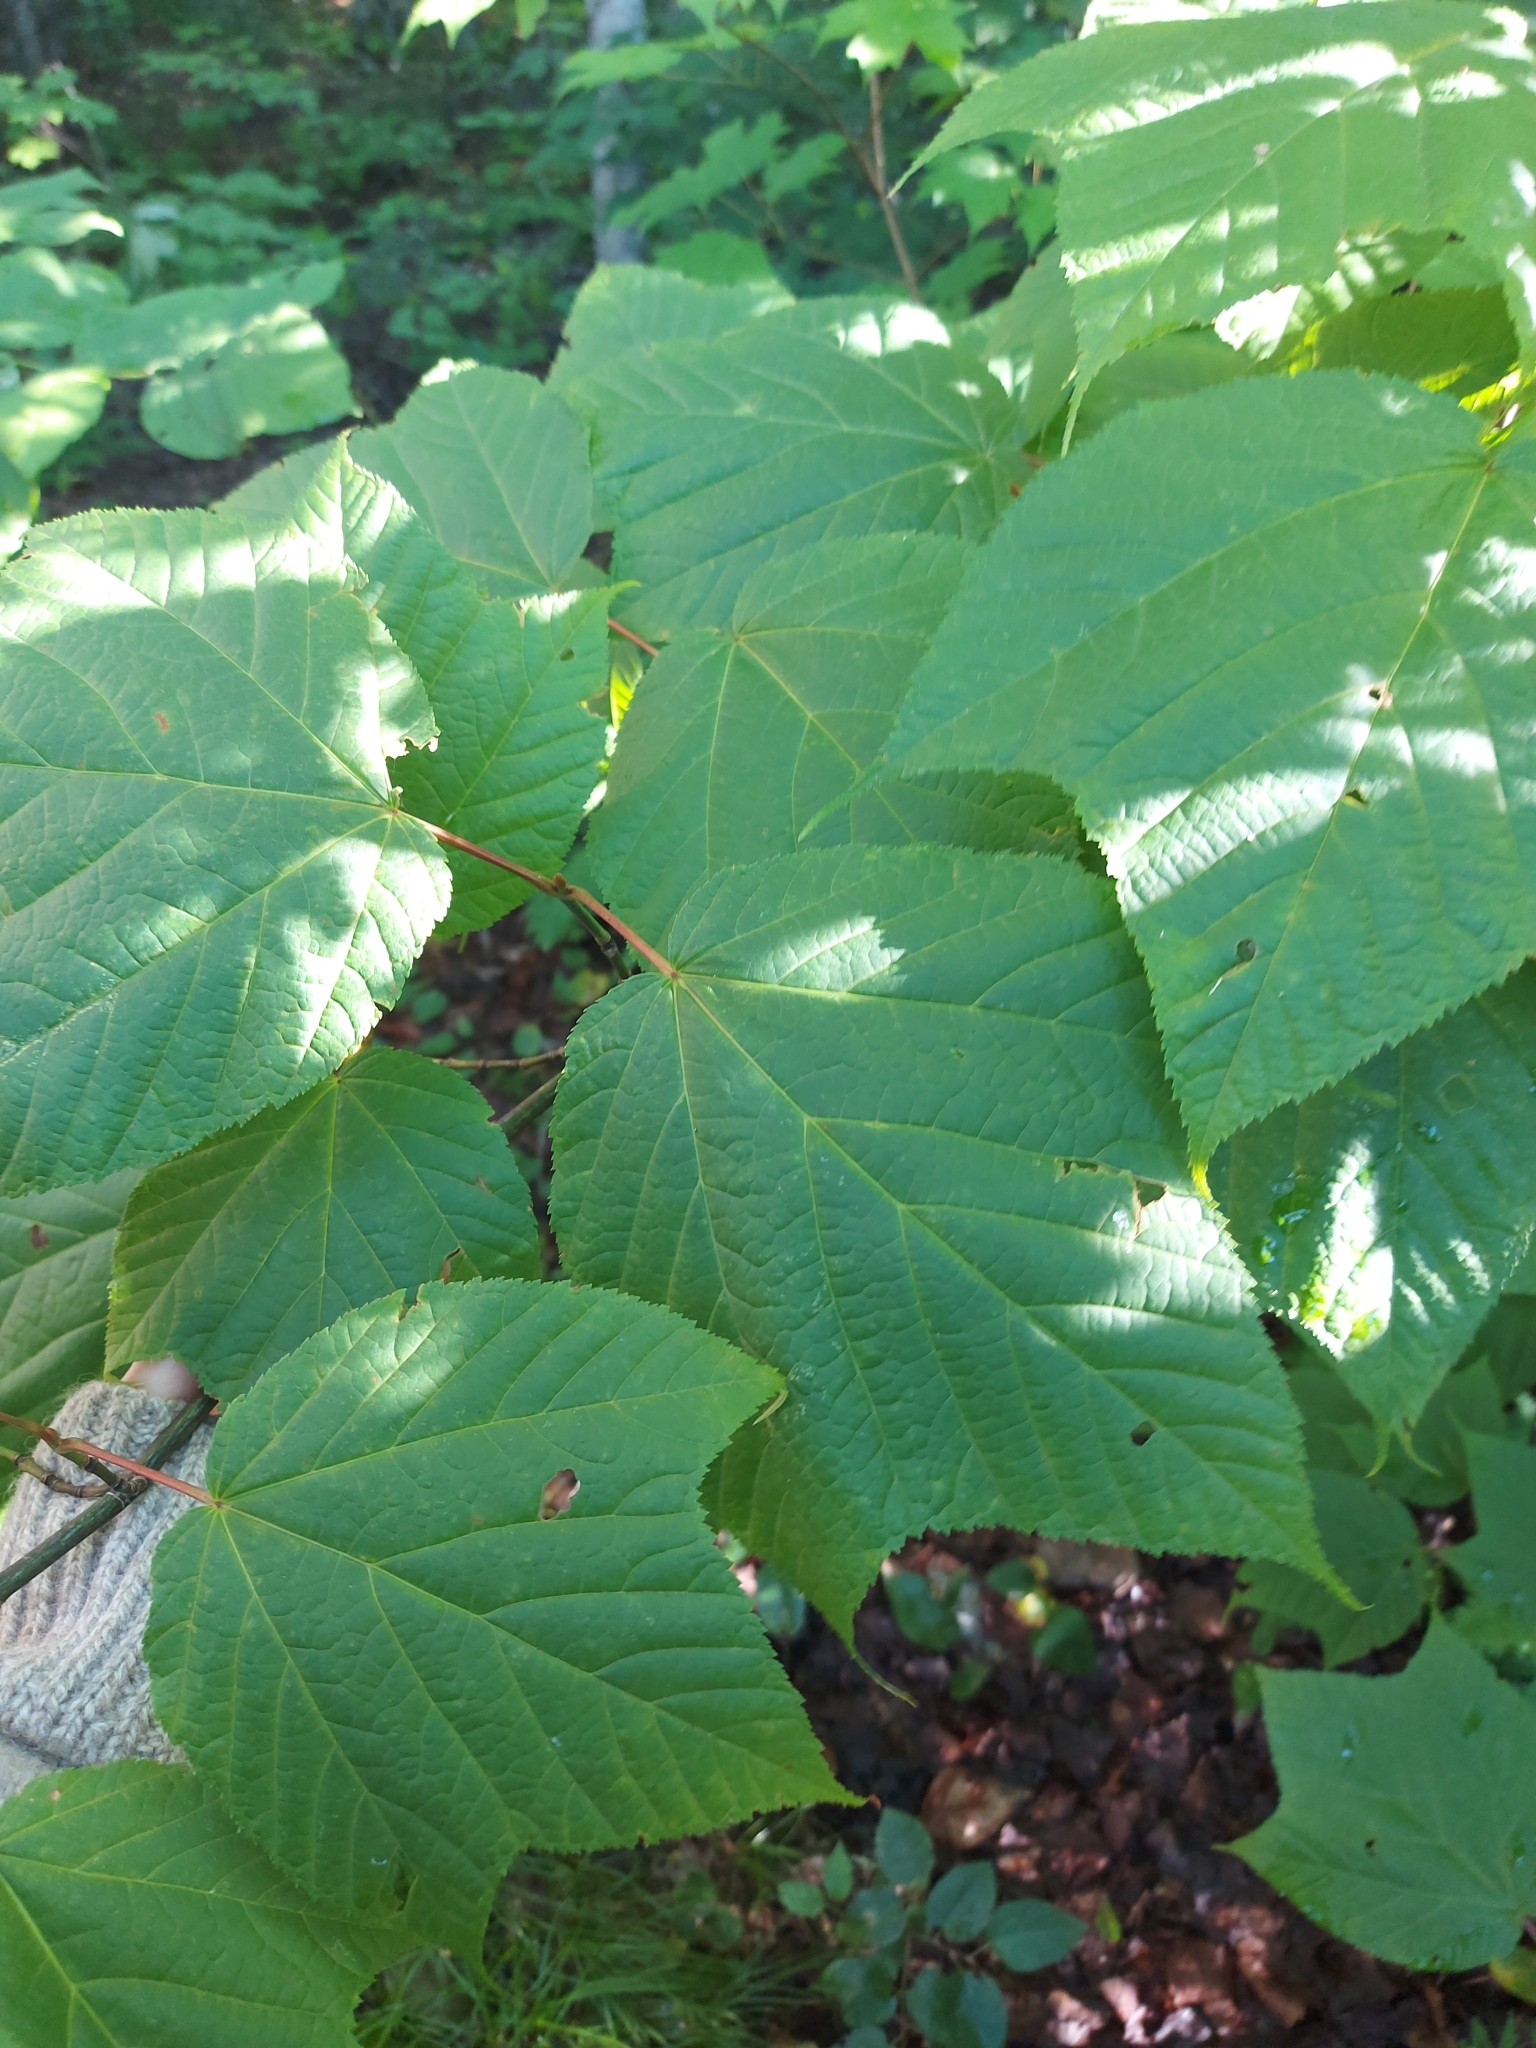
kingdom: Plantae
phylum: Tracheophyta
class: Magnoliopsida
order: Sapindales
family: Sapindaceae
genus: Acer
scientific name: Acer pensylvanicum
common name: Moosewood
